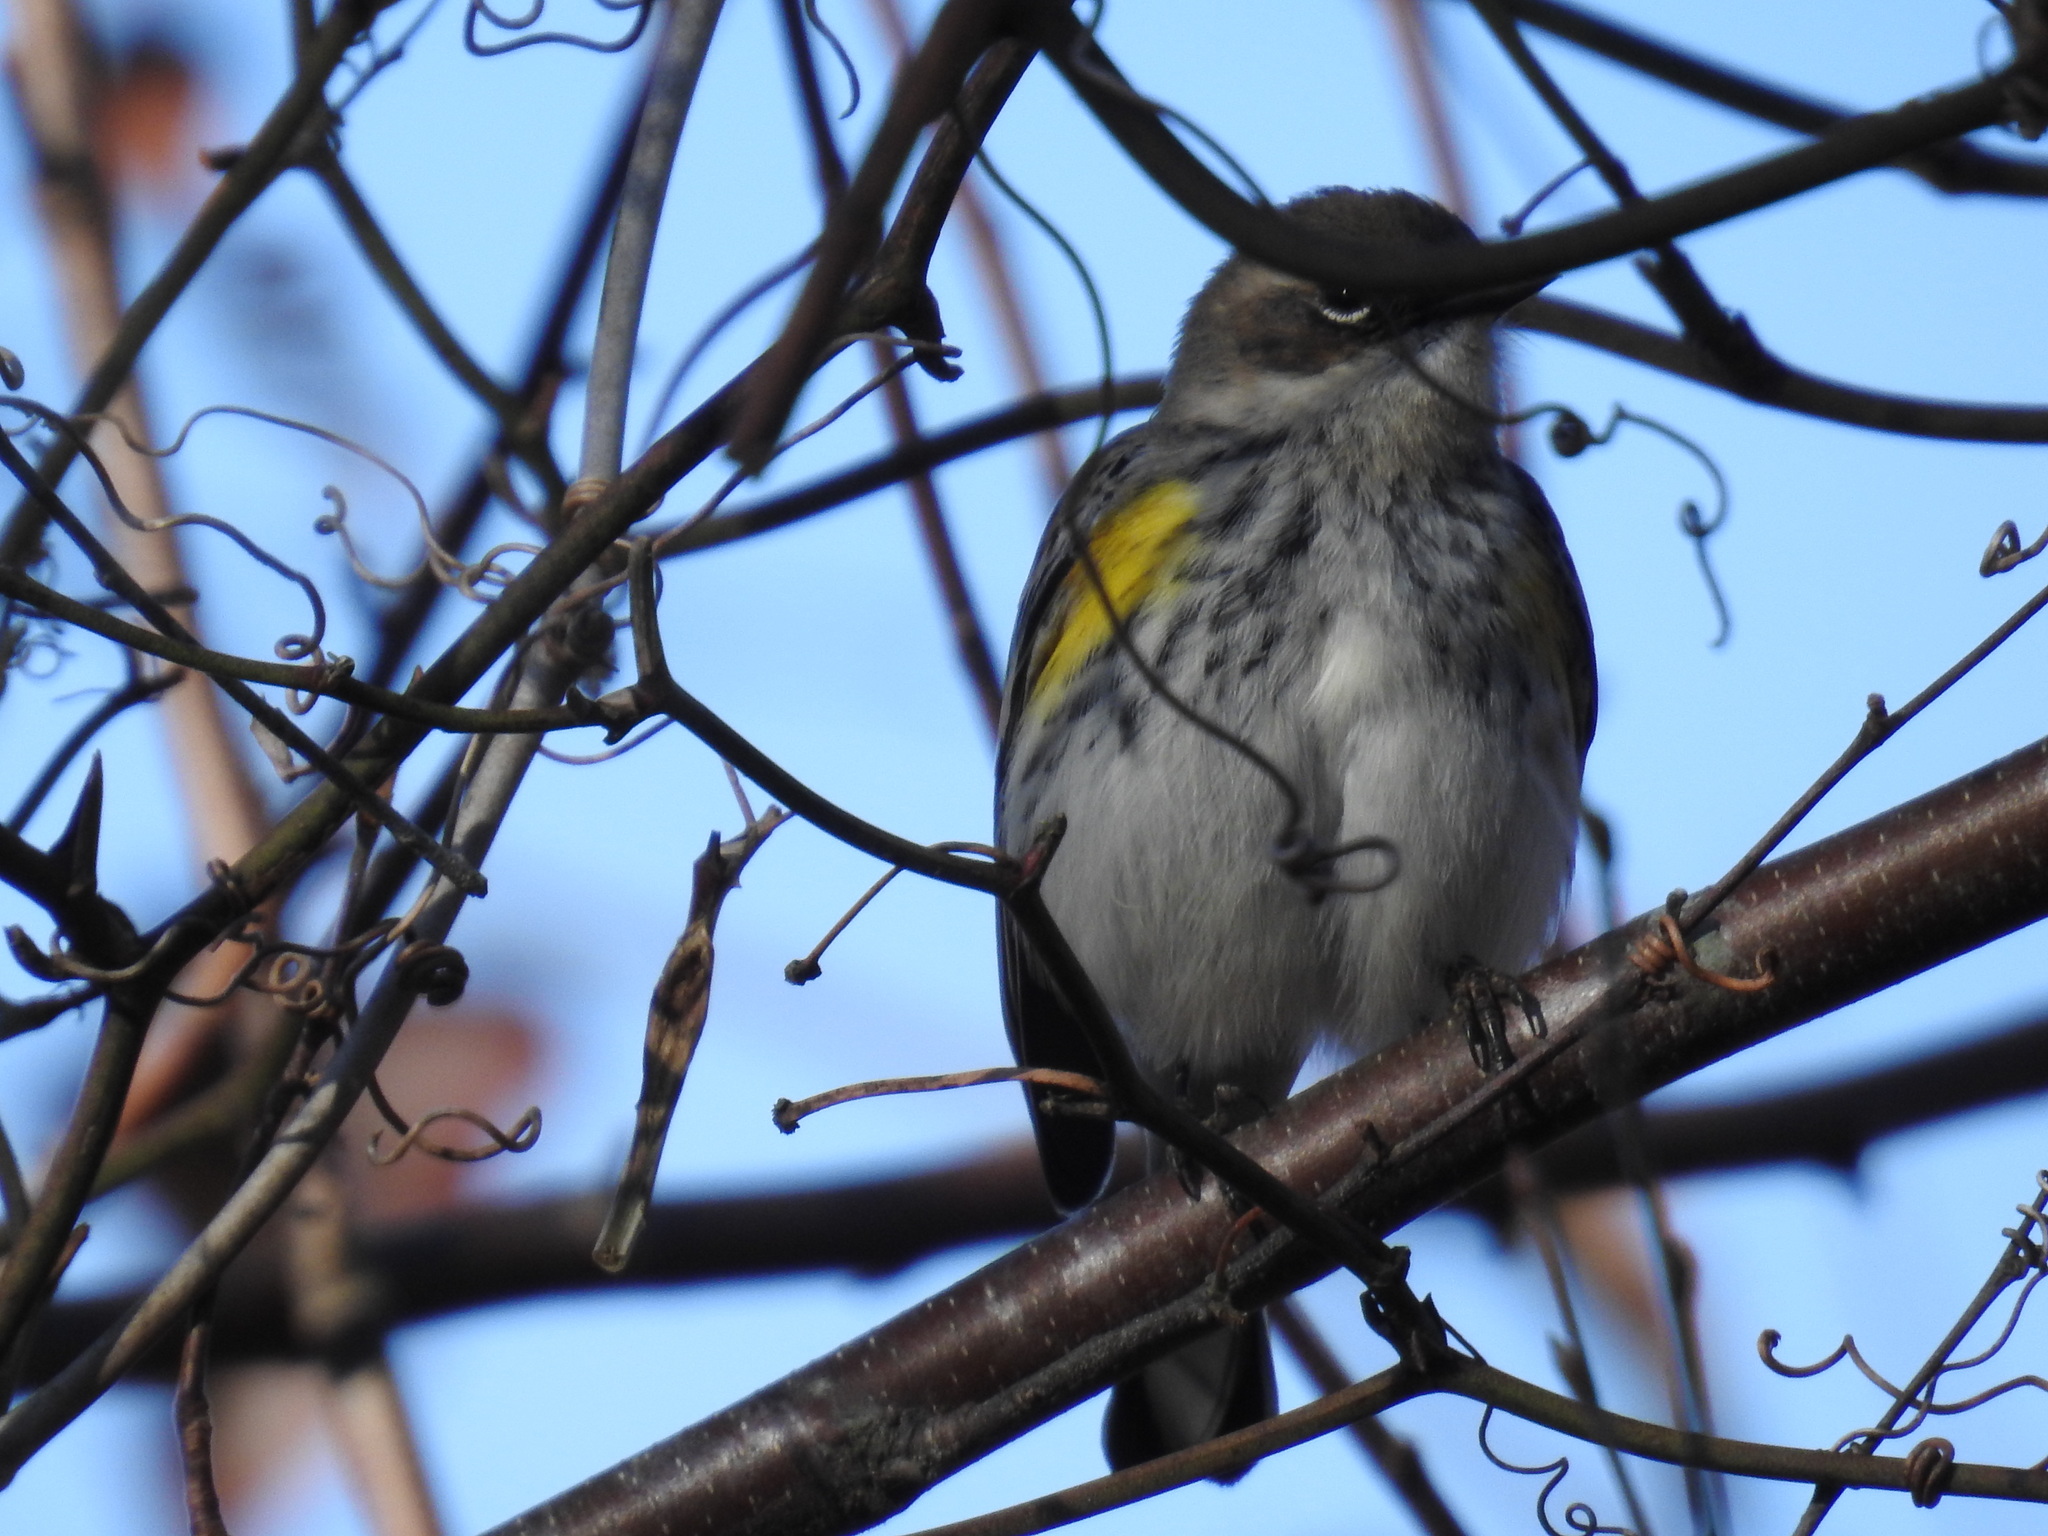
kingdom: Animalia
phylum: Chordata
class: Aves
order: Passeriformes
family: Parulidae
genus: Setophaga
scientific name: Setophaga coronata
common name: Myrtle warbler
